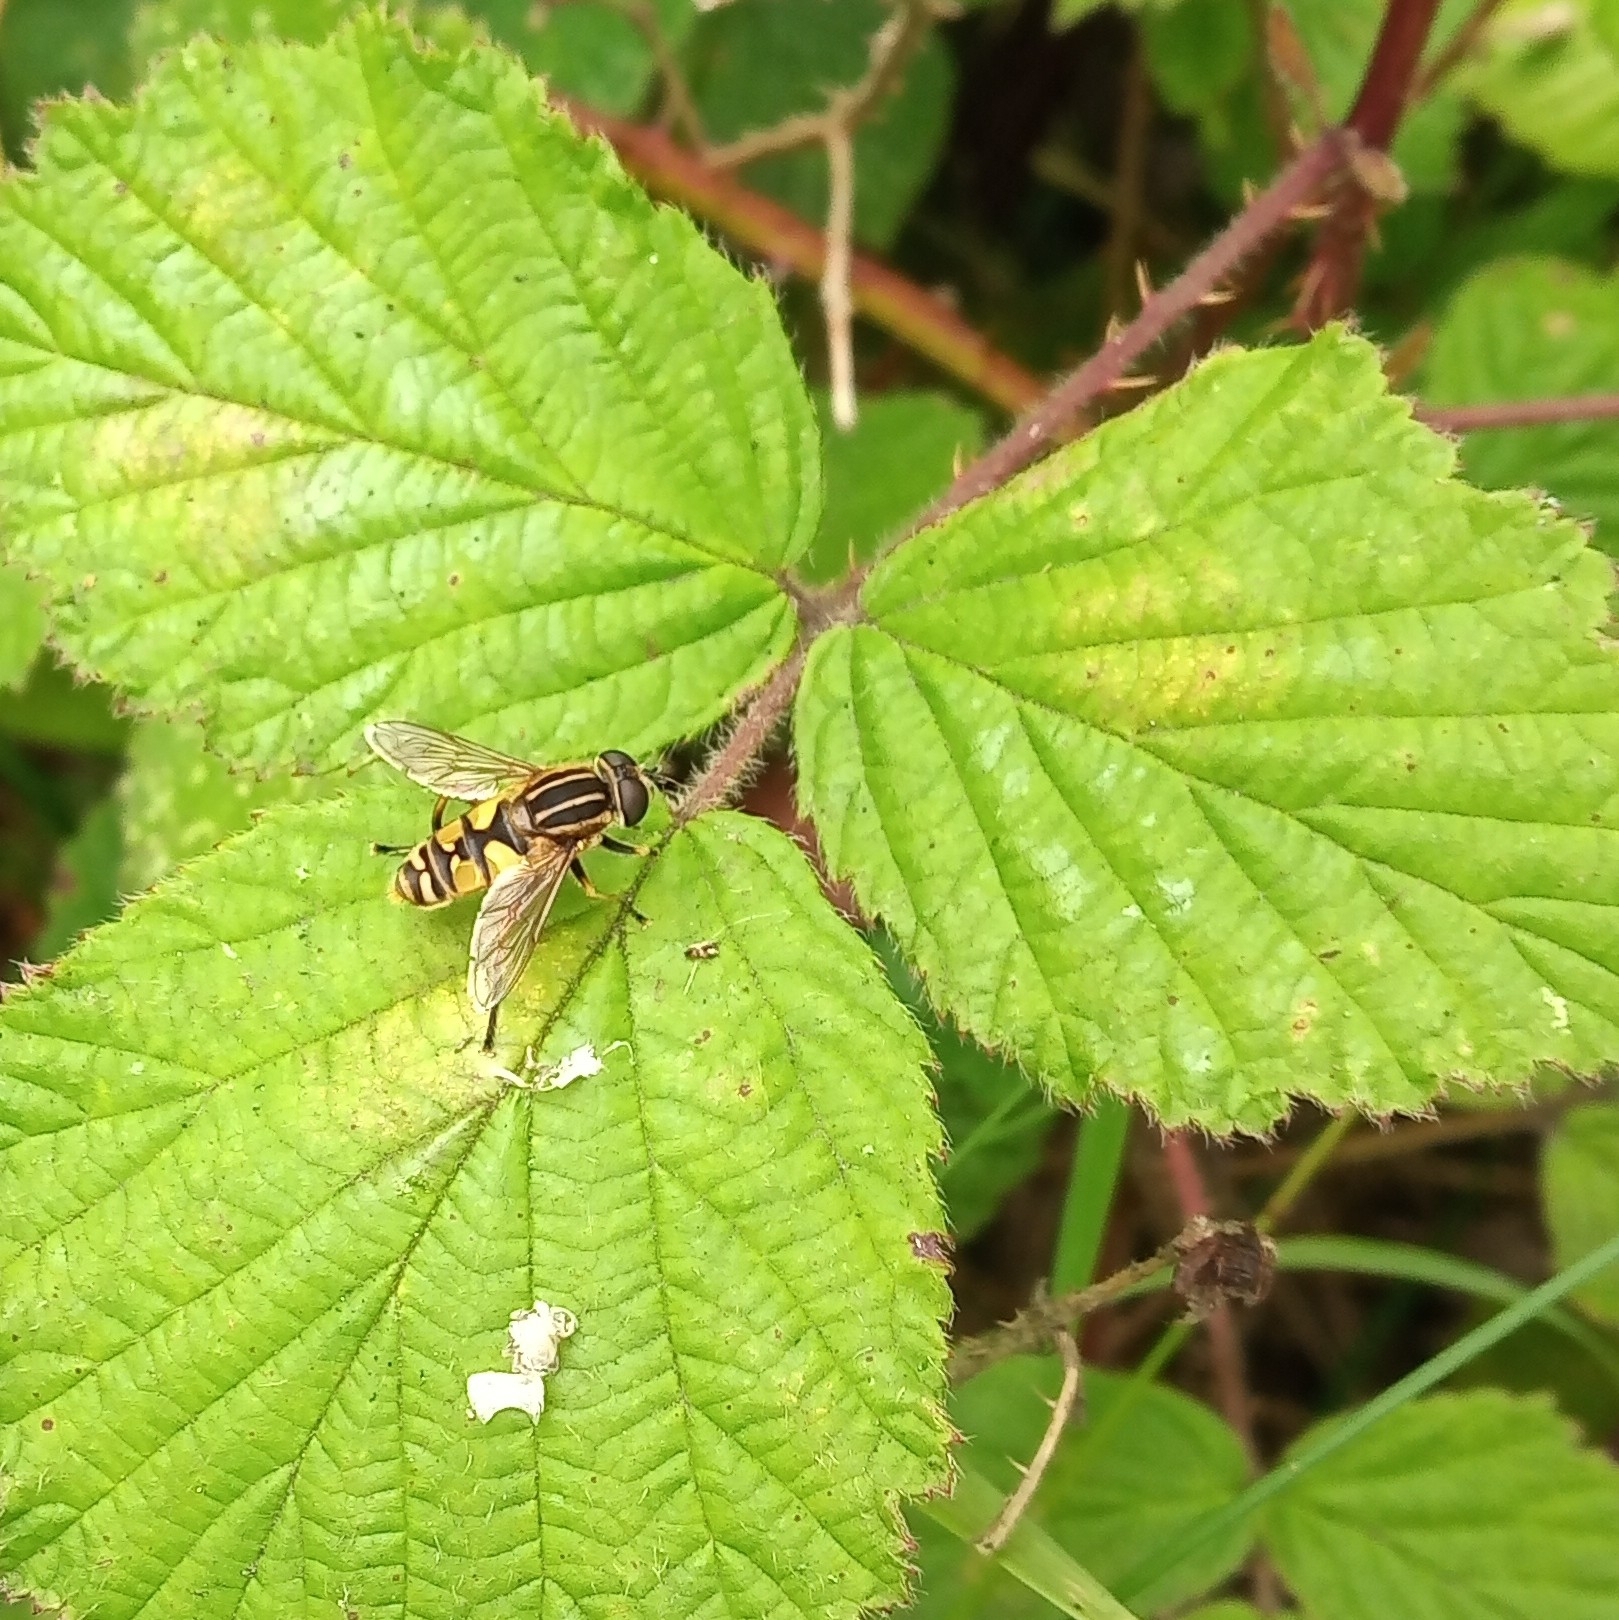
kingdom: Animalia
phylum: Arthropoda
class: Insecta
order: Diptera
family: Syrphidae
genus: Helophilus
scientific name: Helophilus pendulus
